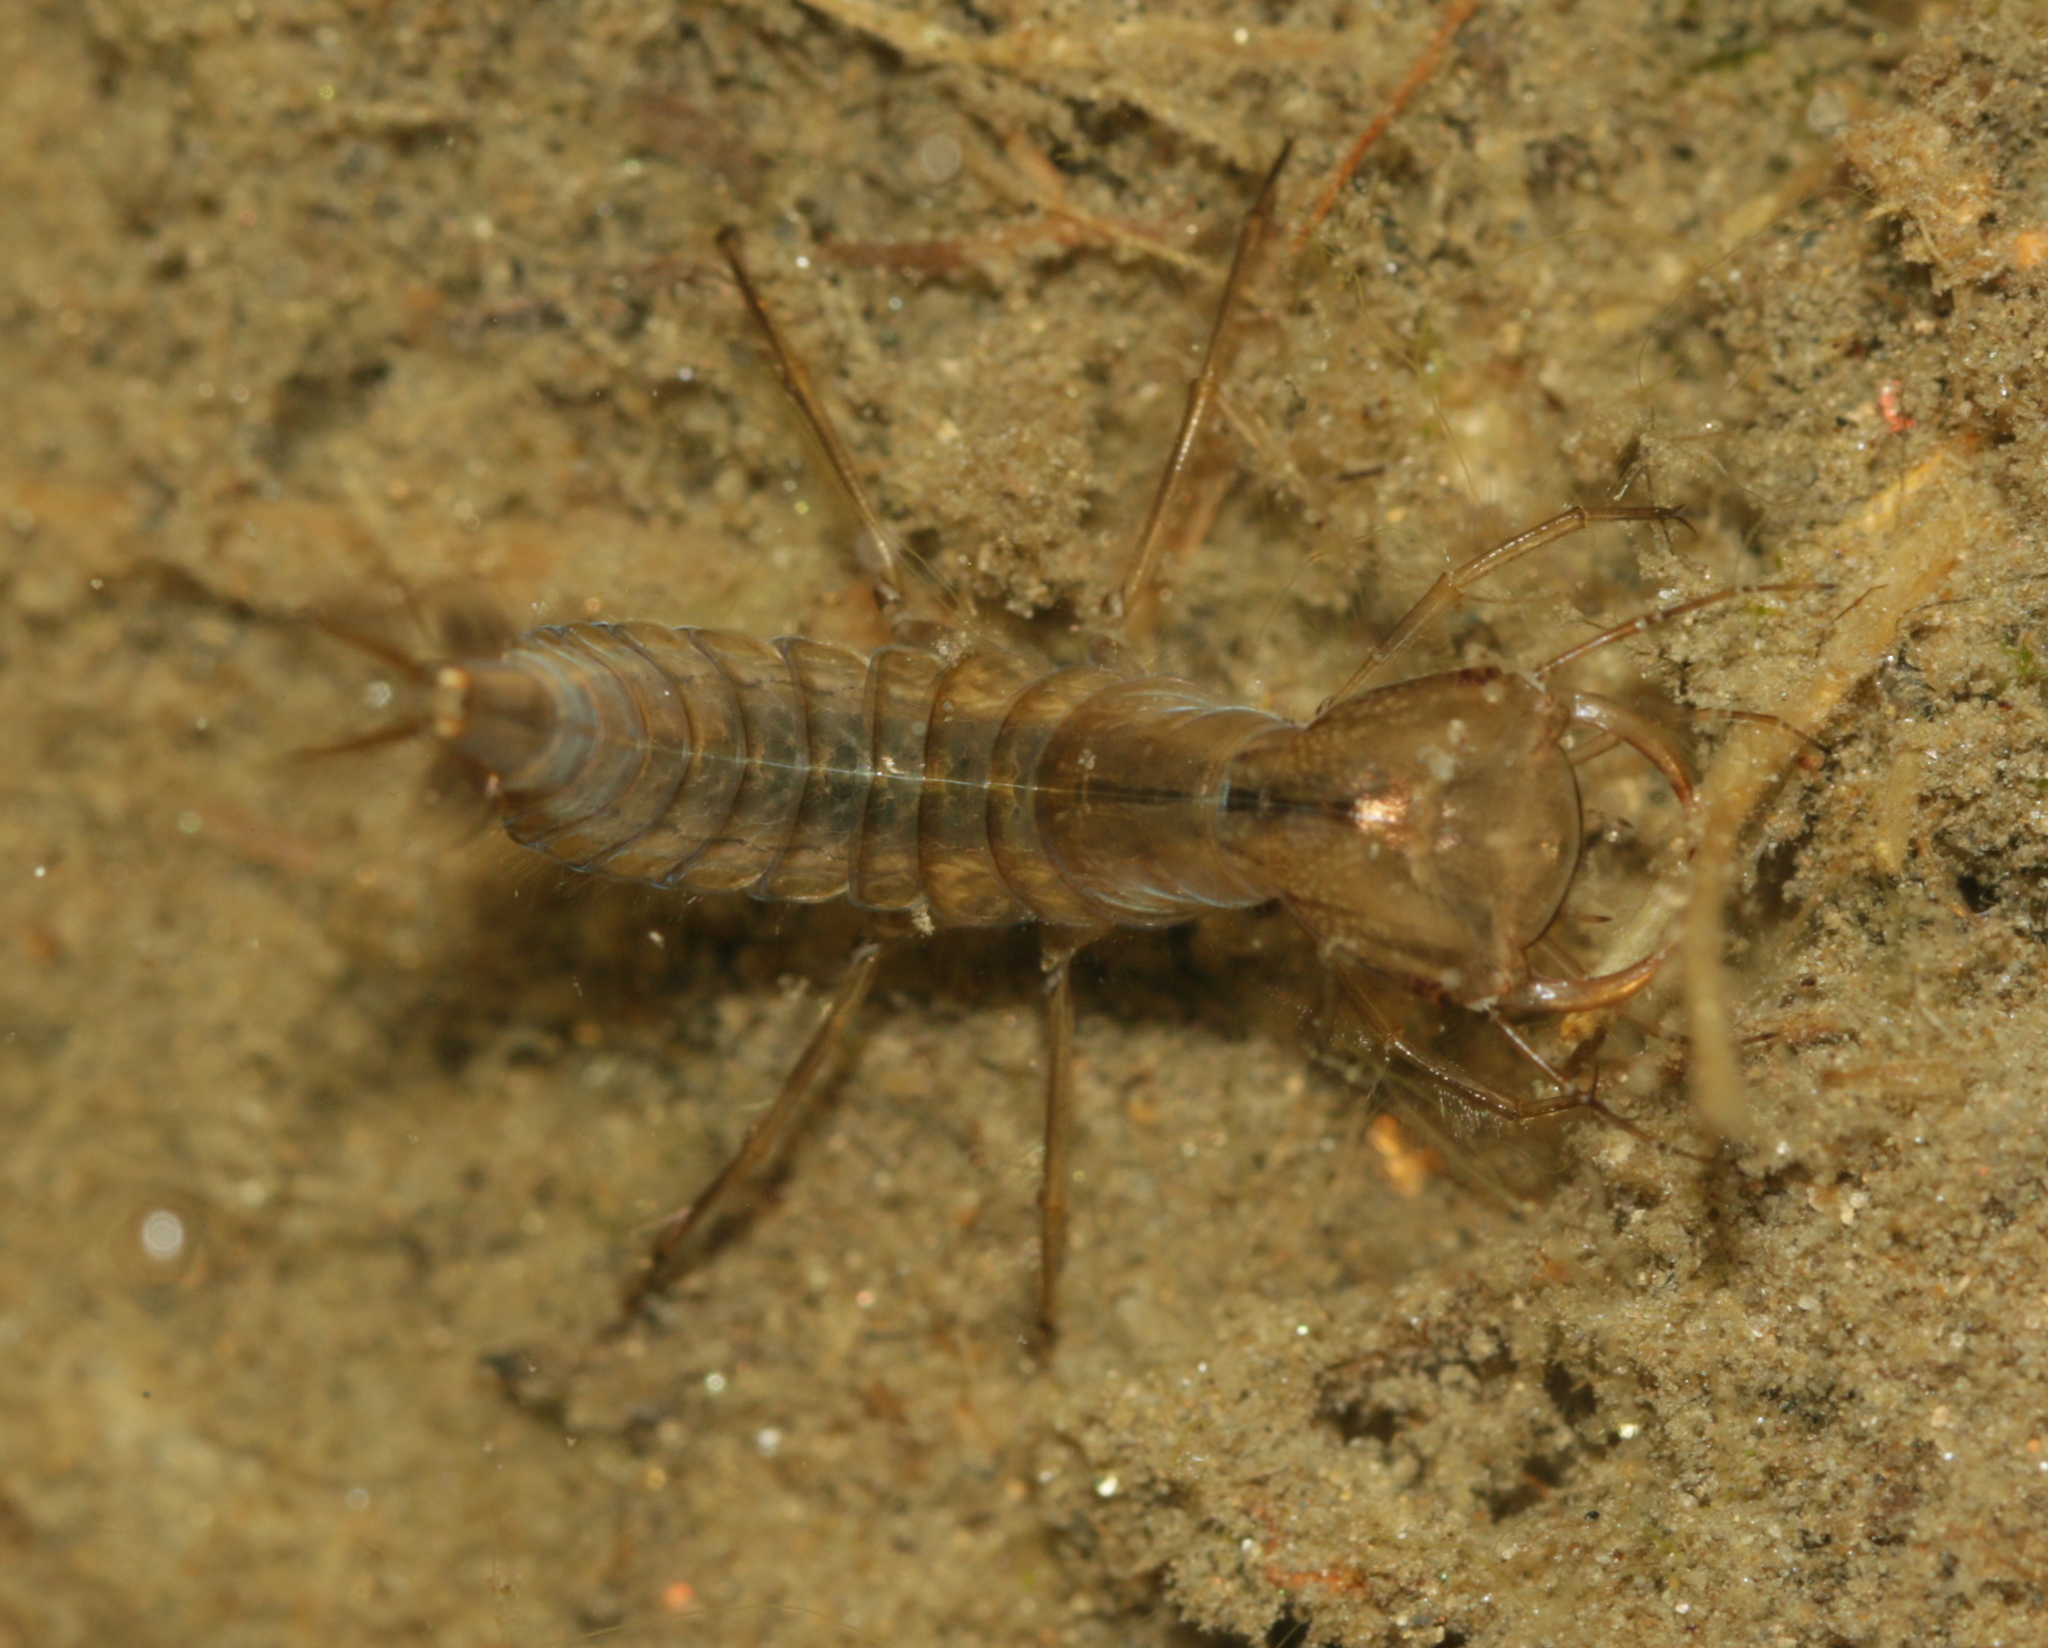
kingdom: Animalia
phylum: Arthropoda
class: Insecta
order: Coleoptera
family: Dytiscidae
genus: Dytiscus
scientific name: Dytiscus
